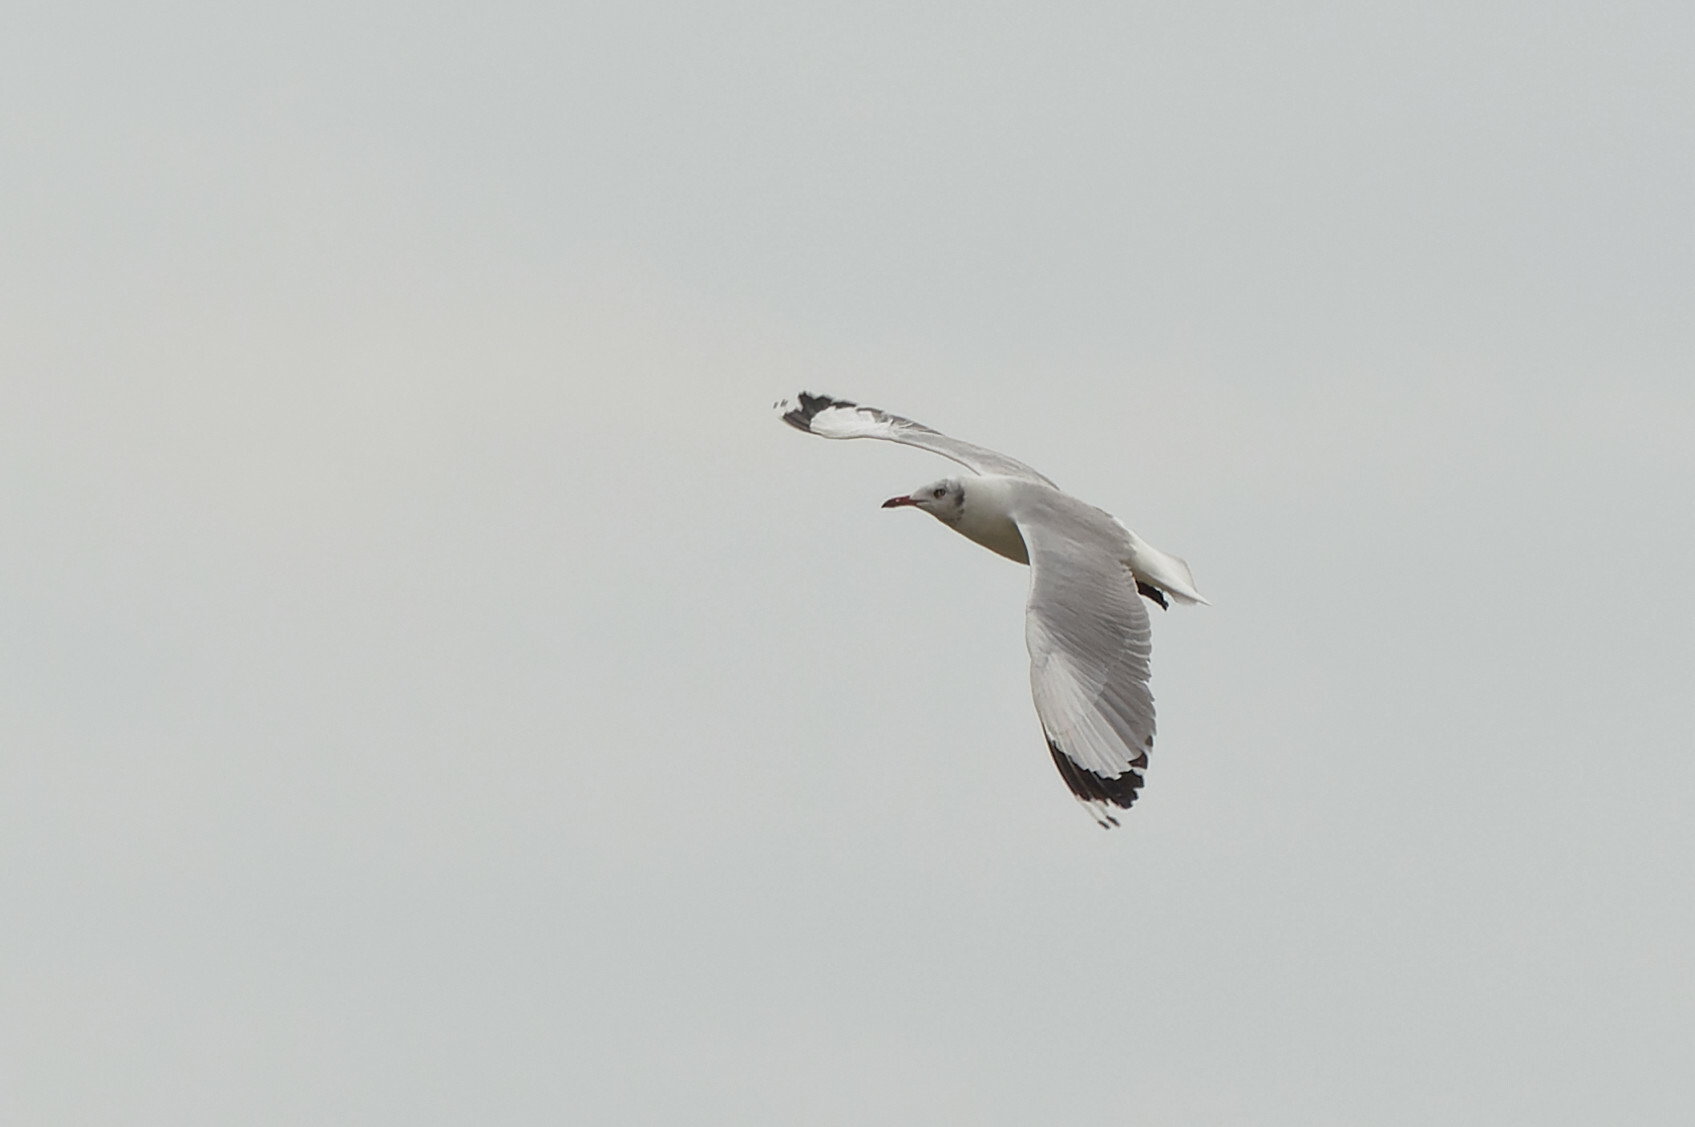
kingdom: Animalia
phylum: Chordata
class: Aves
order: Charadriiformes
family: Laridae
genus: Chroicocephalus
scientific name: Chroicocephalus brunnicephalus
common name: Brown-headed gull
